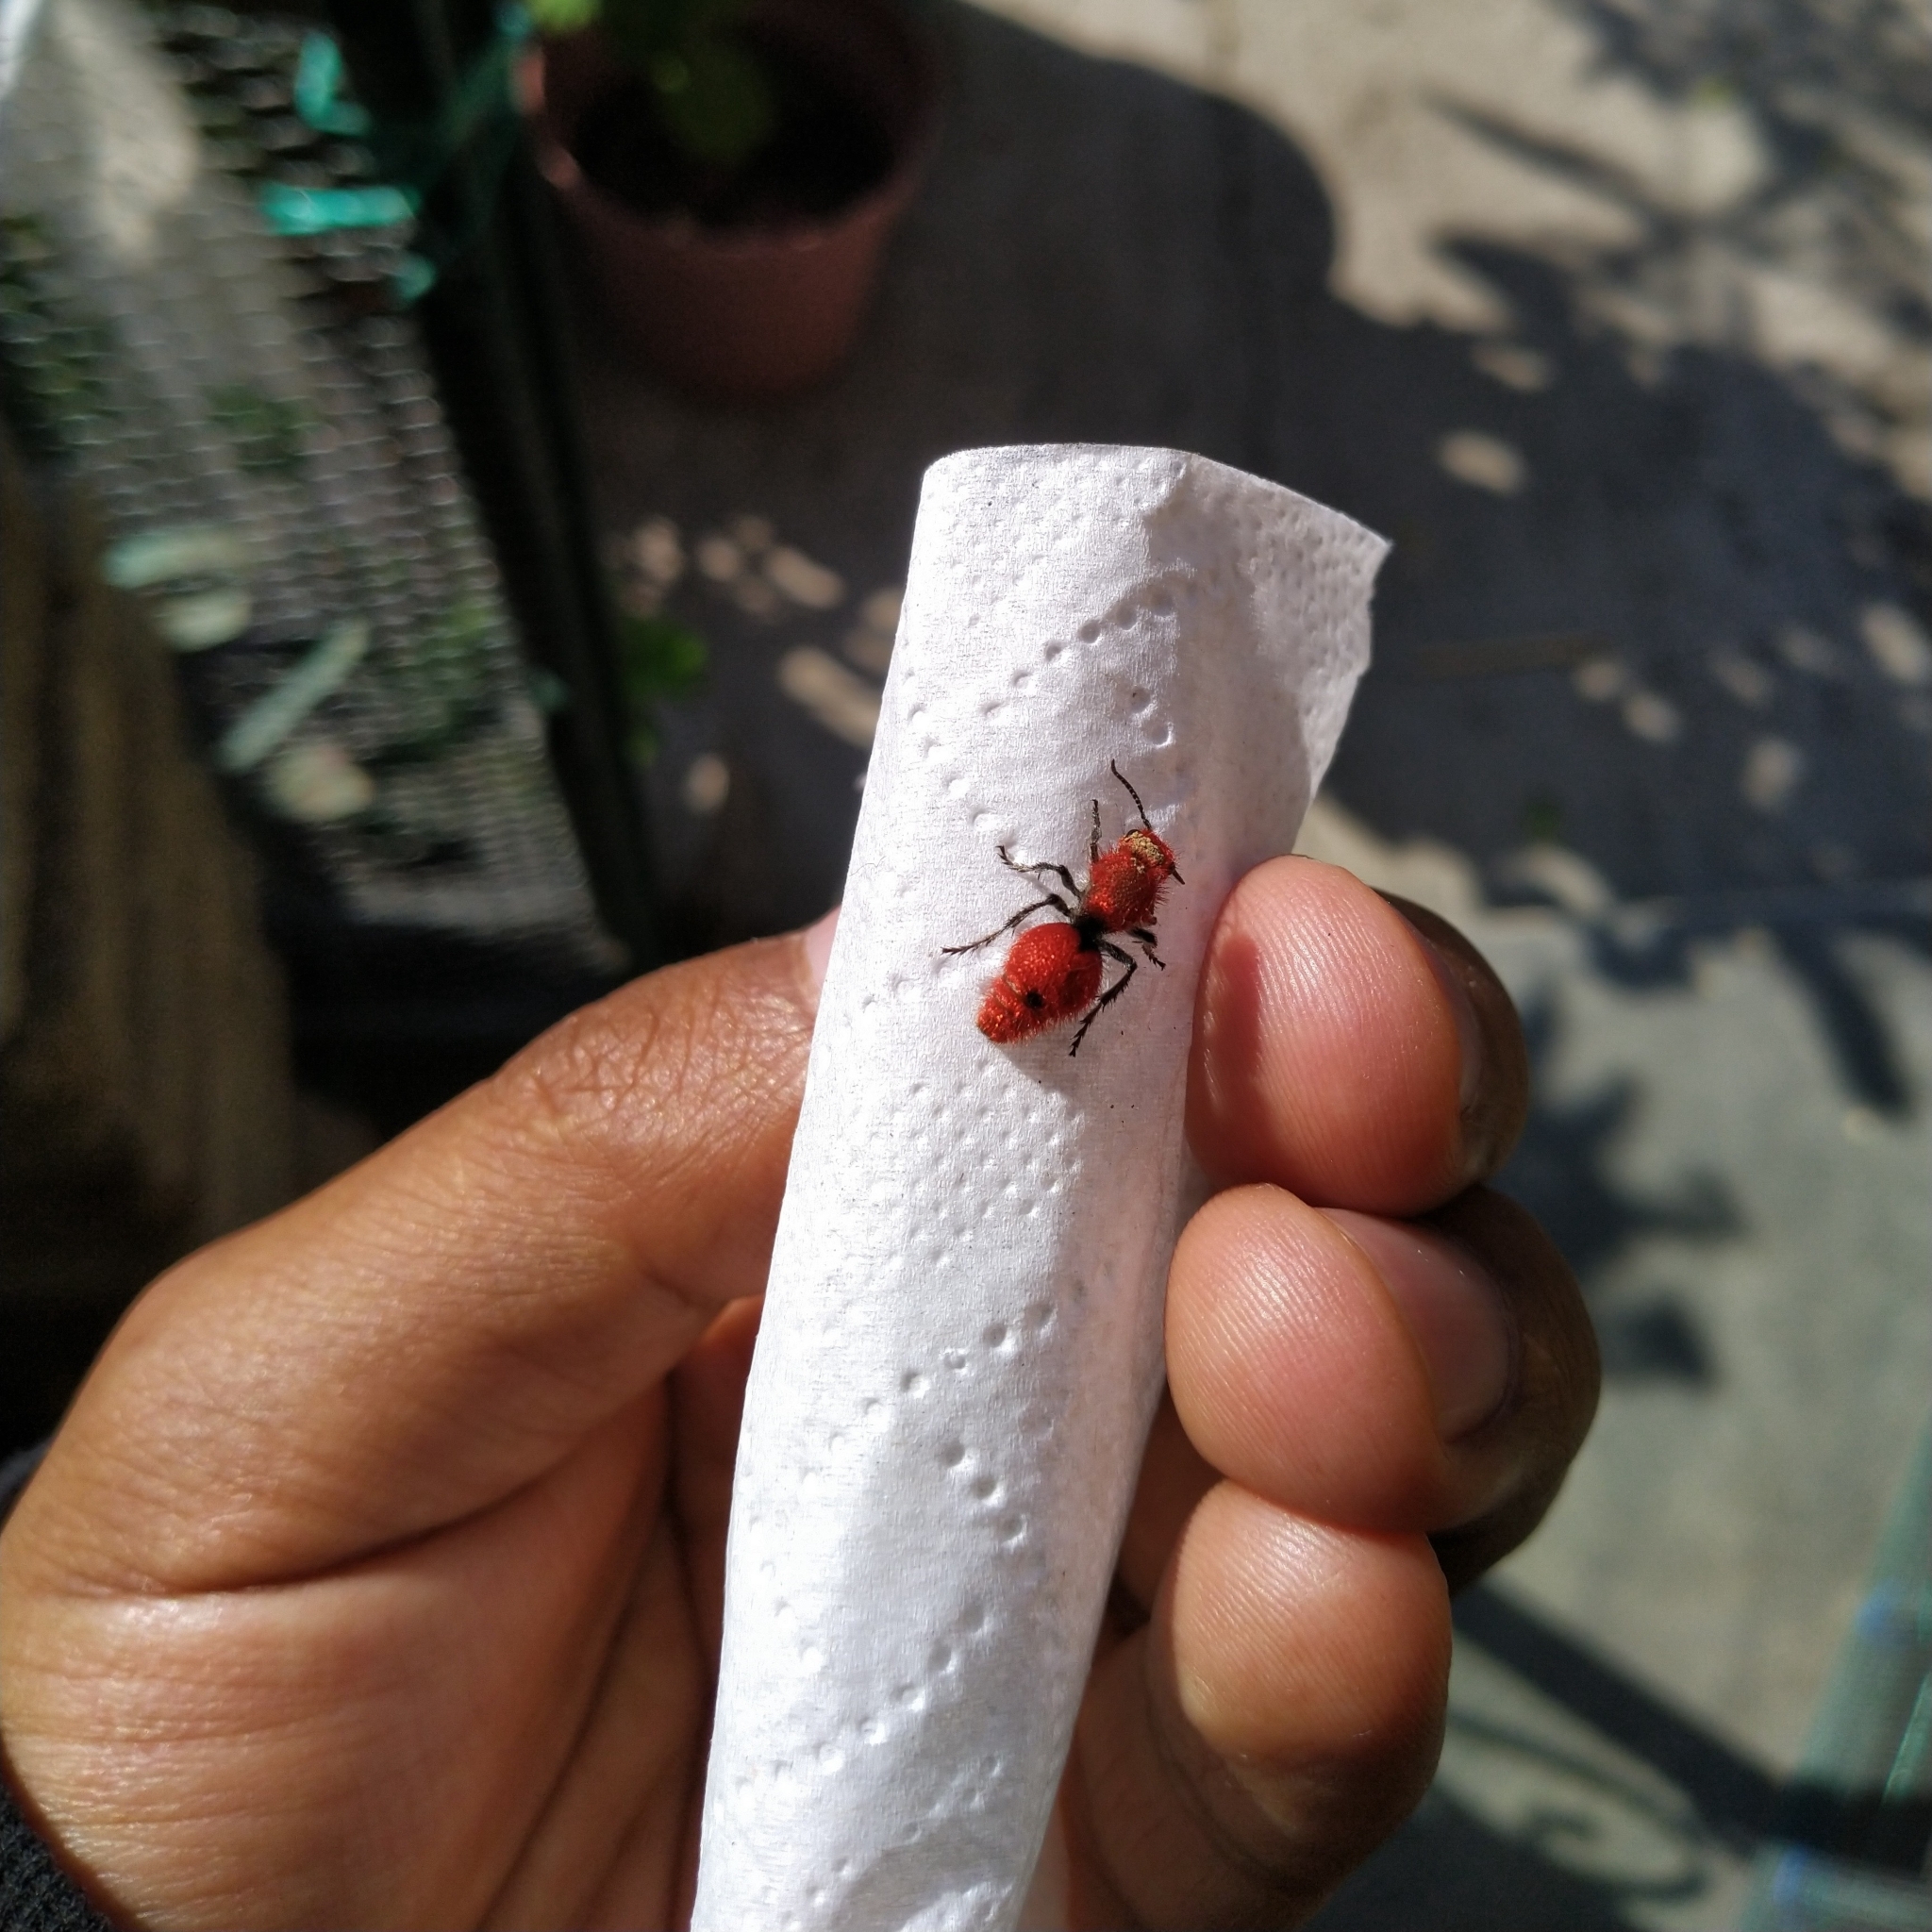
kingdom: Animalia
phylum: Arthropoda
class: Insecta
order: Hymenoptera
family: Mutillidae
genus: Dasymutilla
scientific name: Dasymutilla
